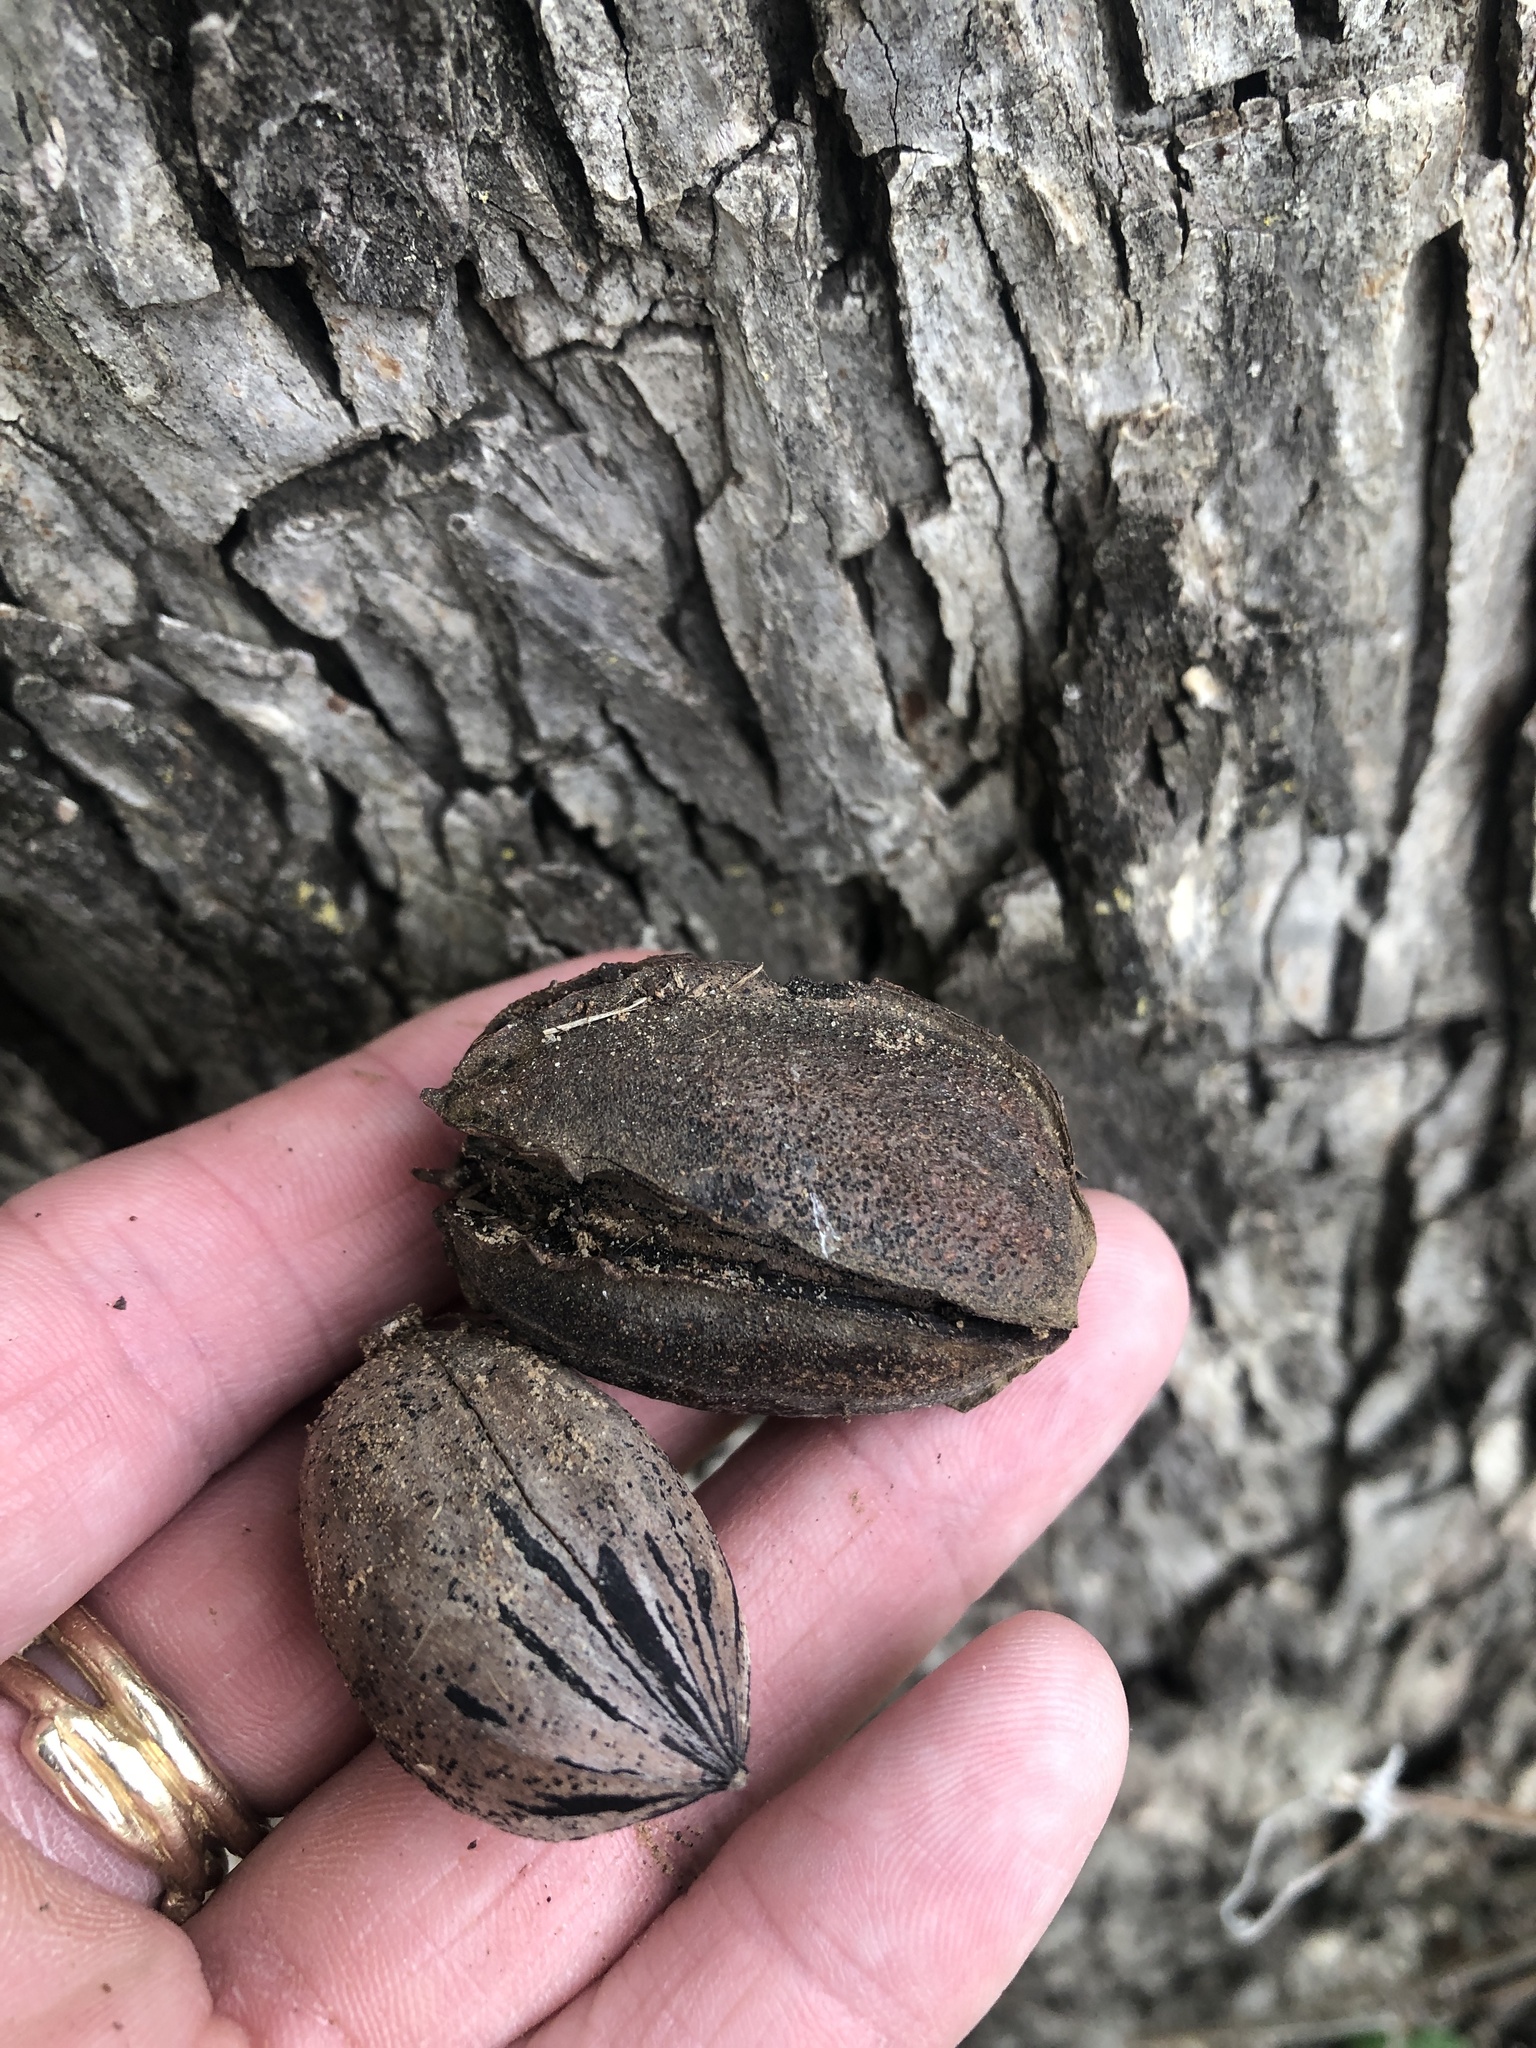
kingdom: Plantae
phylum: Tracheophyta
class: Magnoliopsida
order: Fagales
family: Juglandaceae
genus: Carya
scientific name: Carya illinoinensis
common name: Pecan
